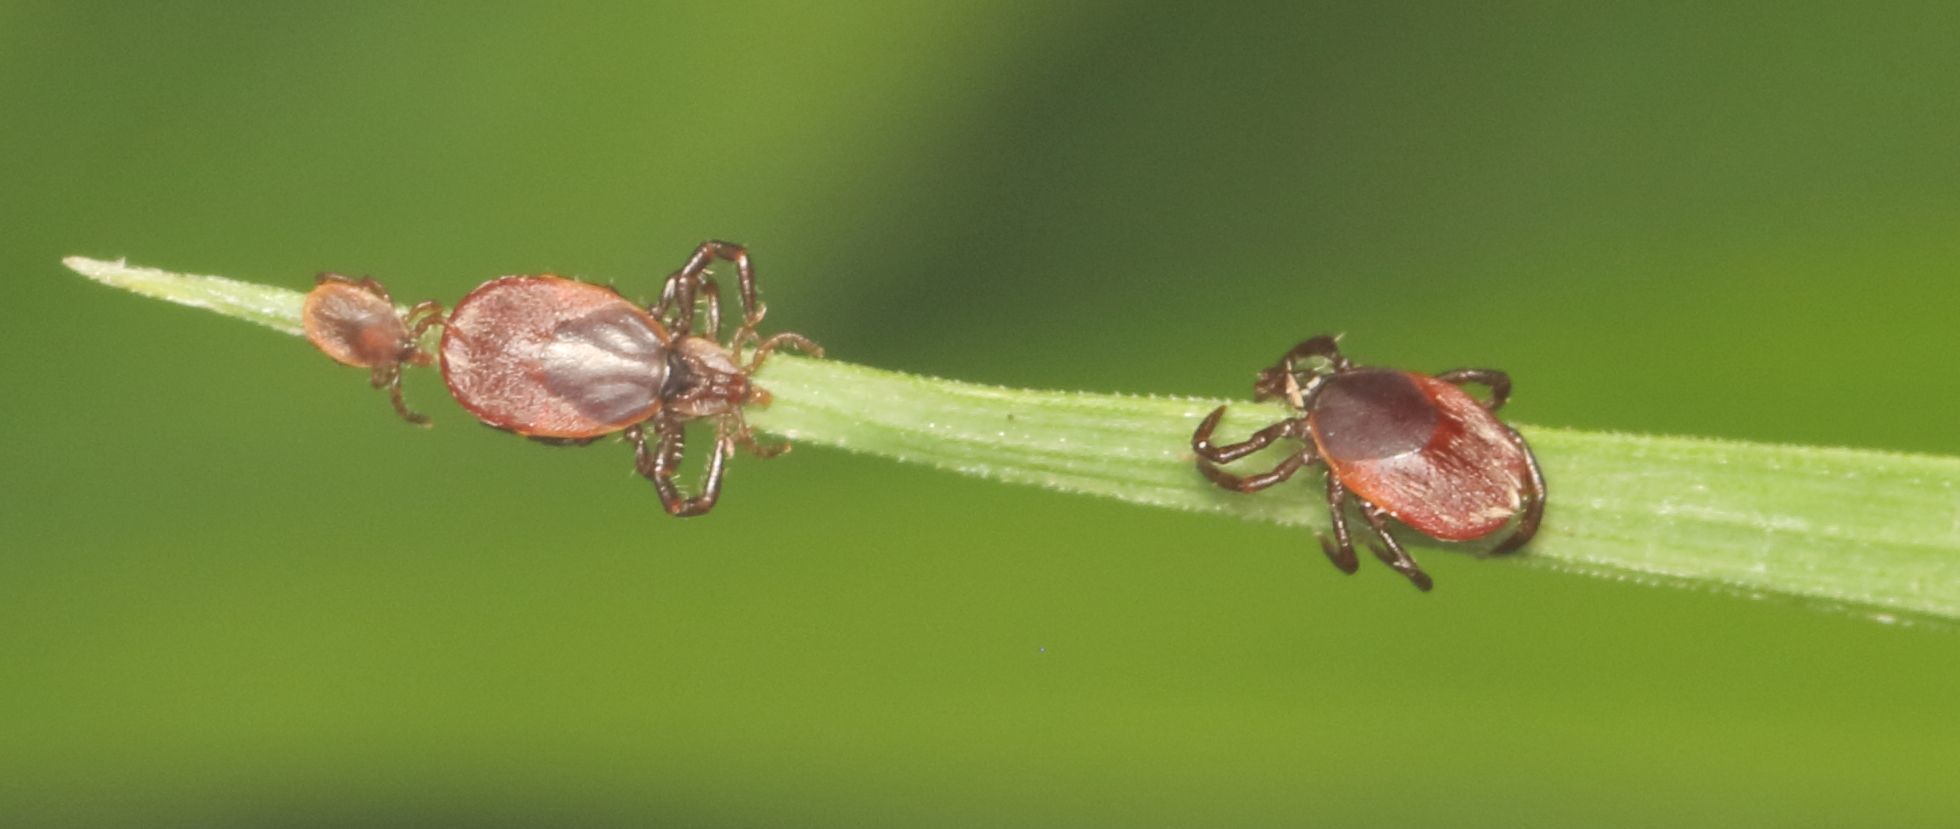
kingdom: Animalia
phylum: Arthropoda
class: Arachnida
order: Ixodida
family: Ixodidae
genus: Ixodes
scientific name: Ixodes rubicundus
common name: Karoo paralysis tick
